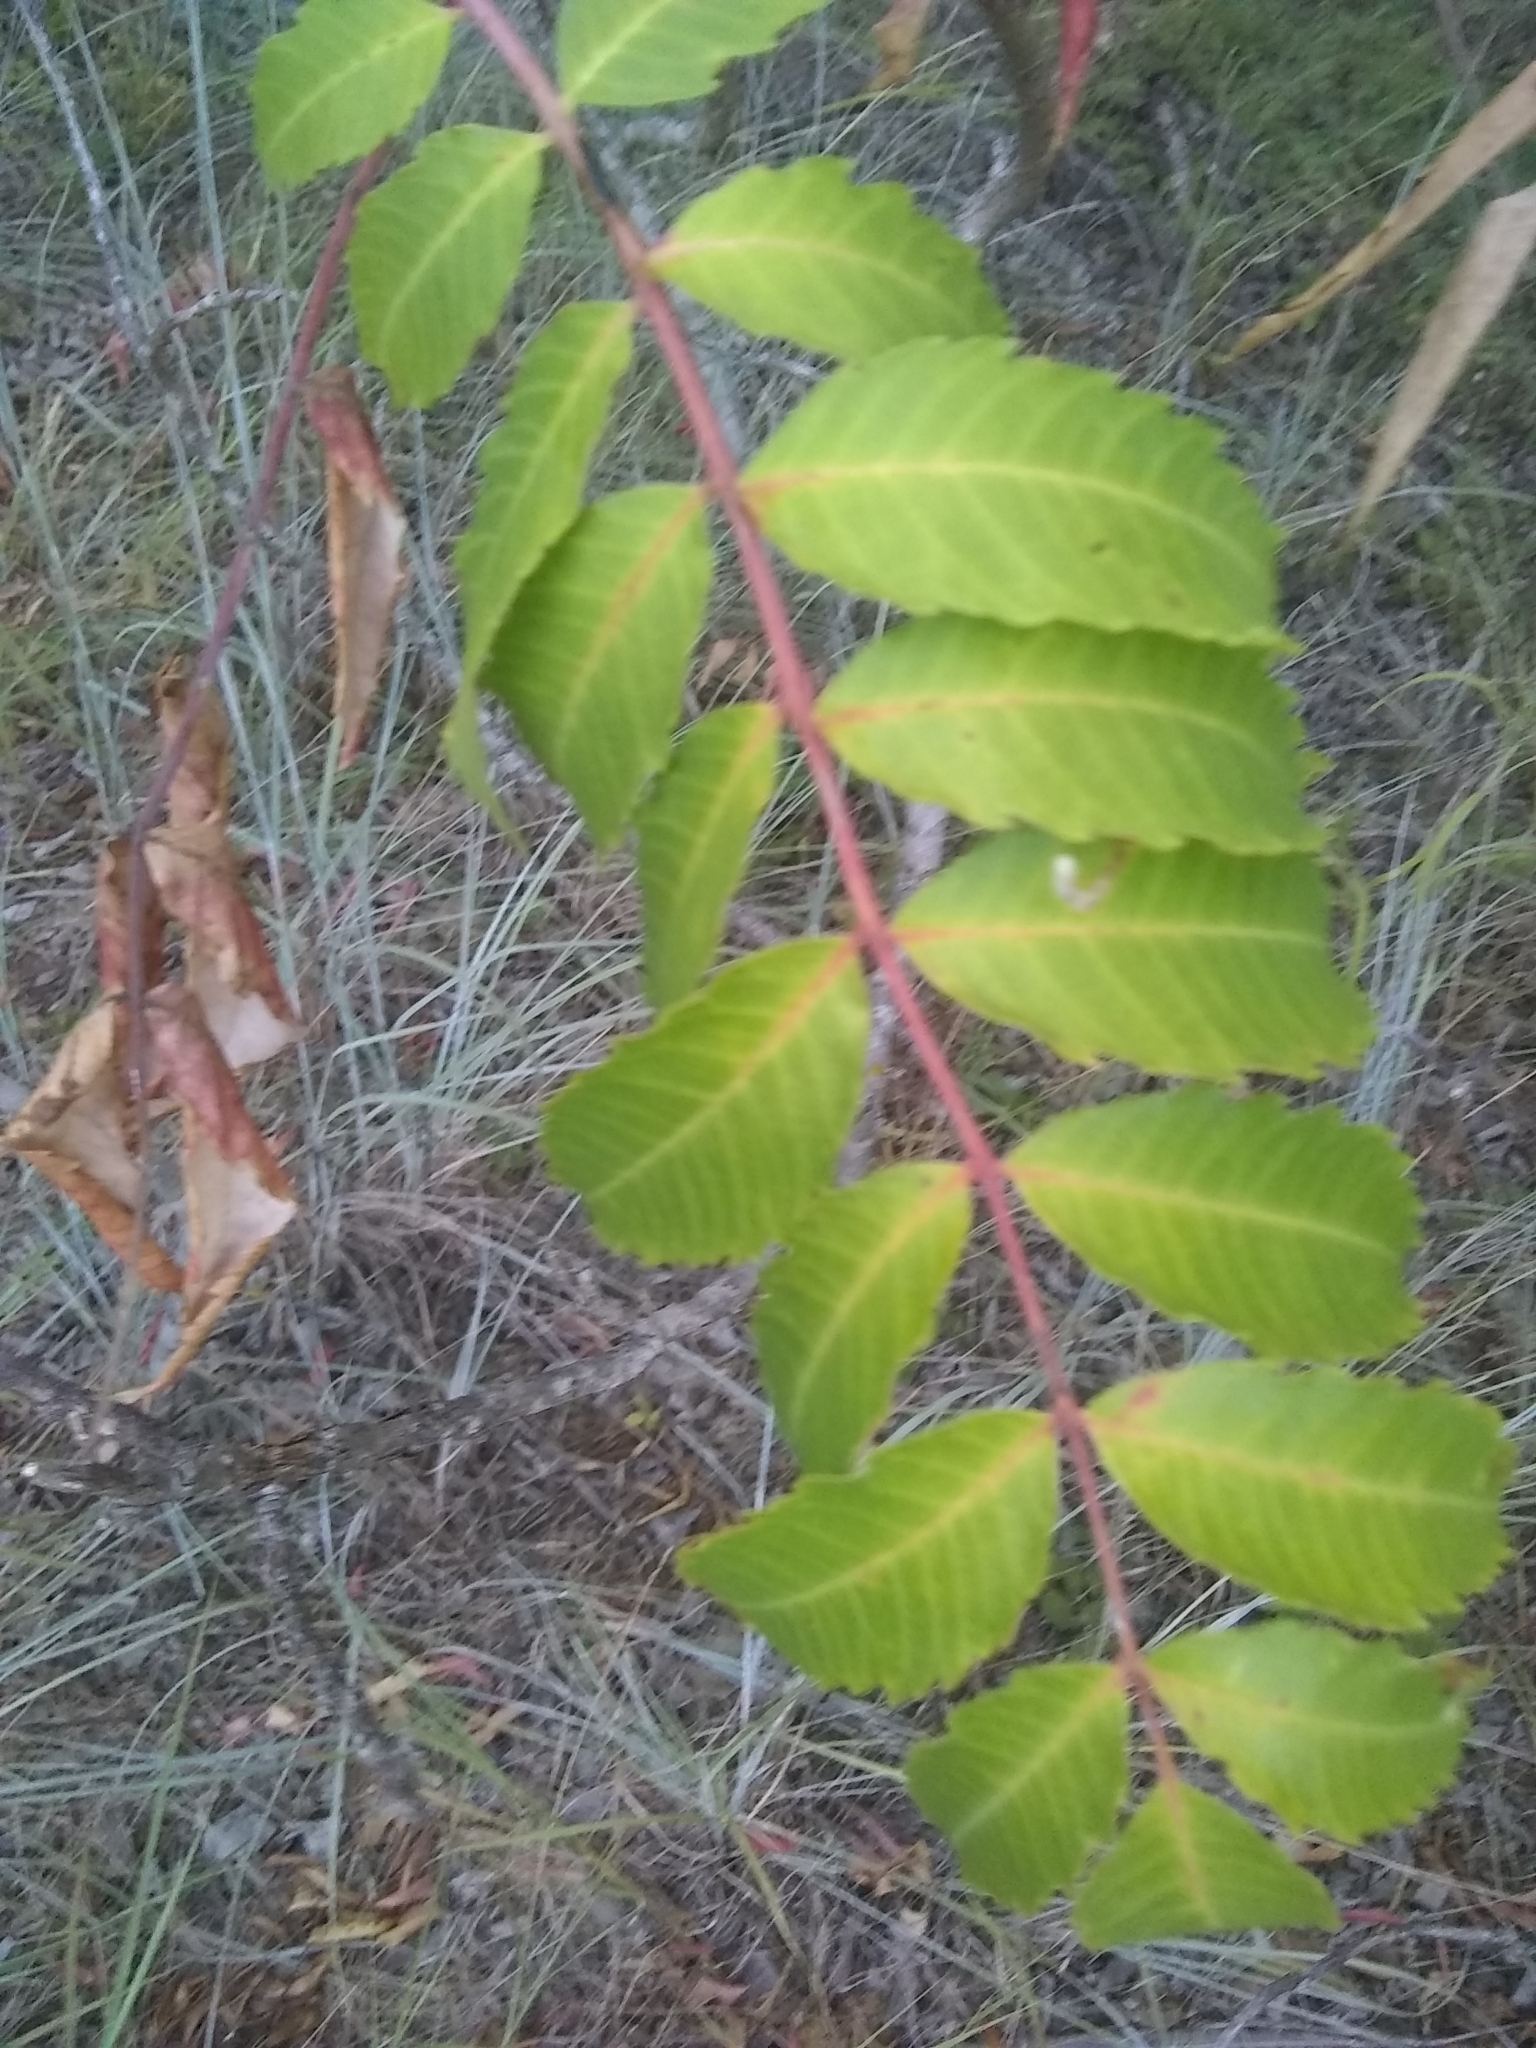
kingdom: Plantae
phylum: Tracheophyta
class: Magnoliopsida
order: Sapindales
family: Anacardiaceae
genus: Rhus
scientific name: Rhus glabra
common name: Scarlet sumac
